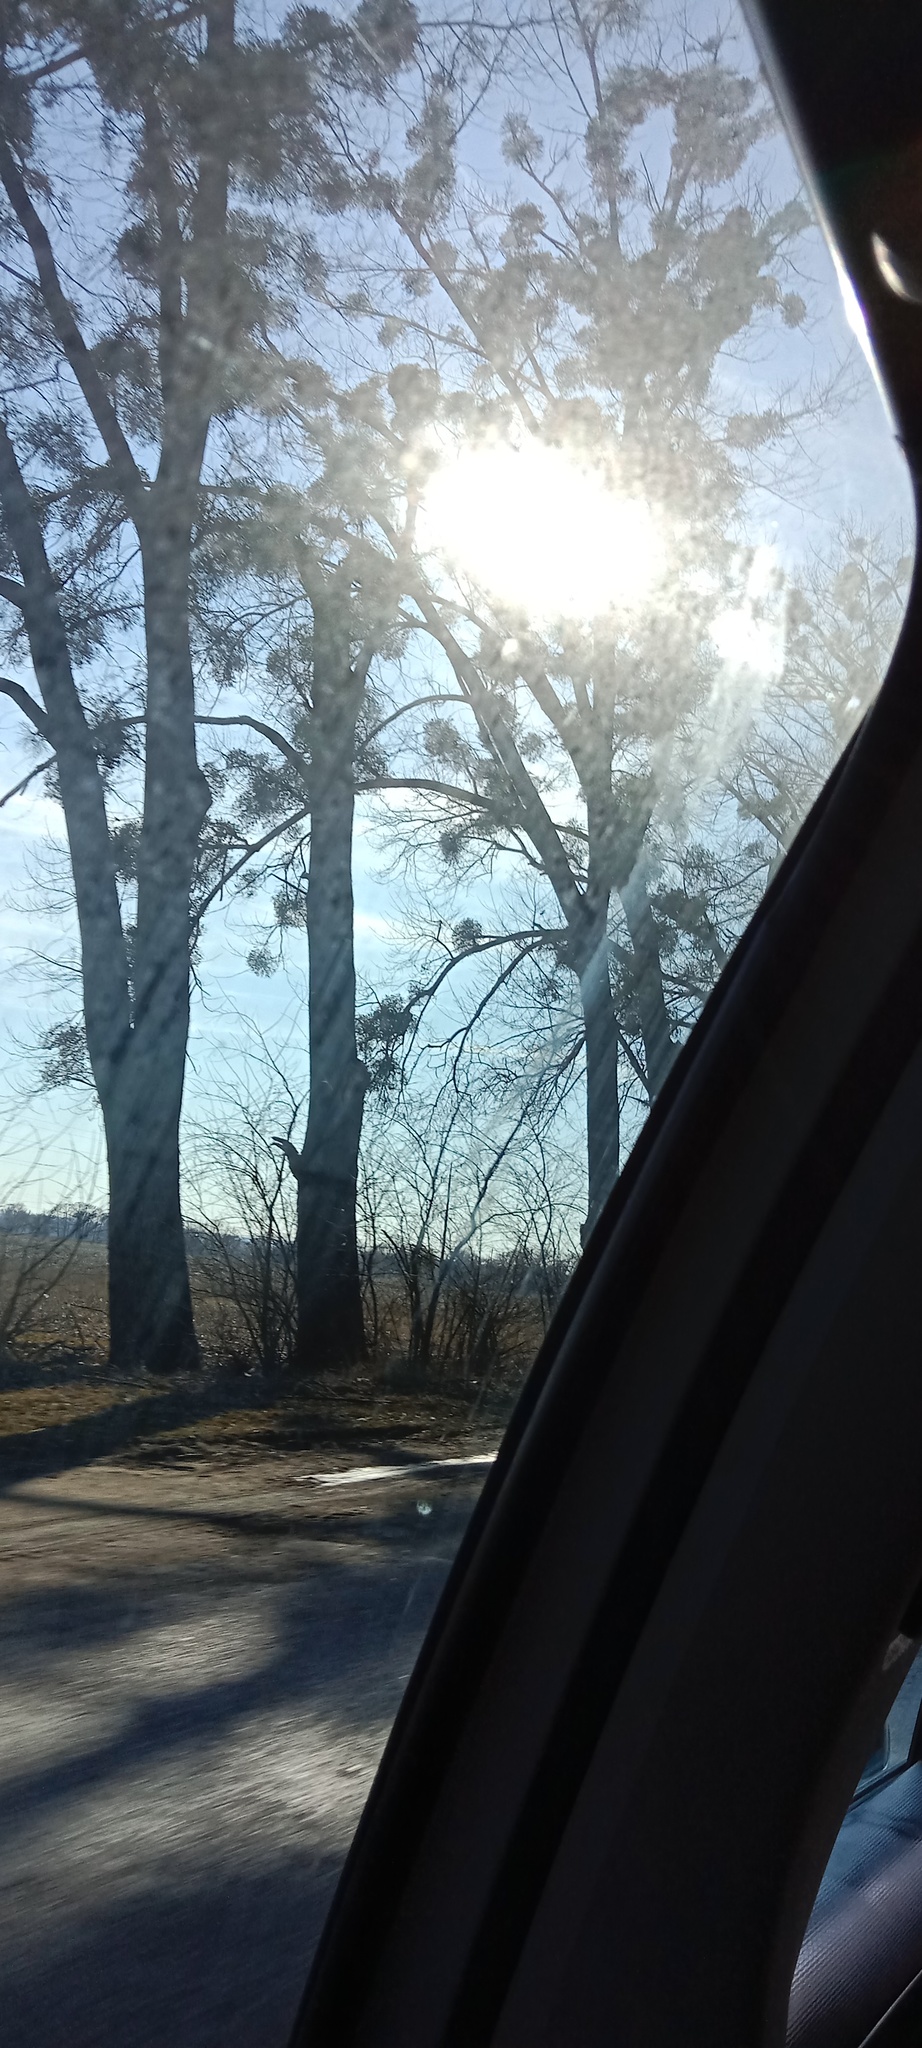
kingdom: Plantae
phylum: Tracheophyta
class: Magnoliopsida
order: Santalales
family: Viscaceae
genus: Viscum
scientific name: Viscum album
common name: Mistletoe
